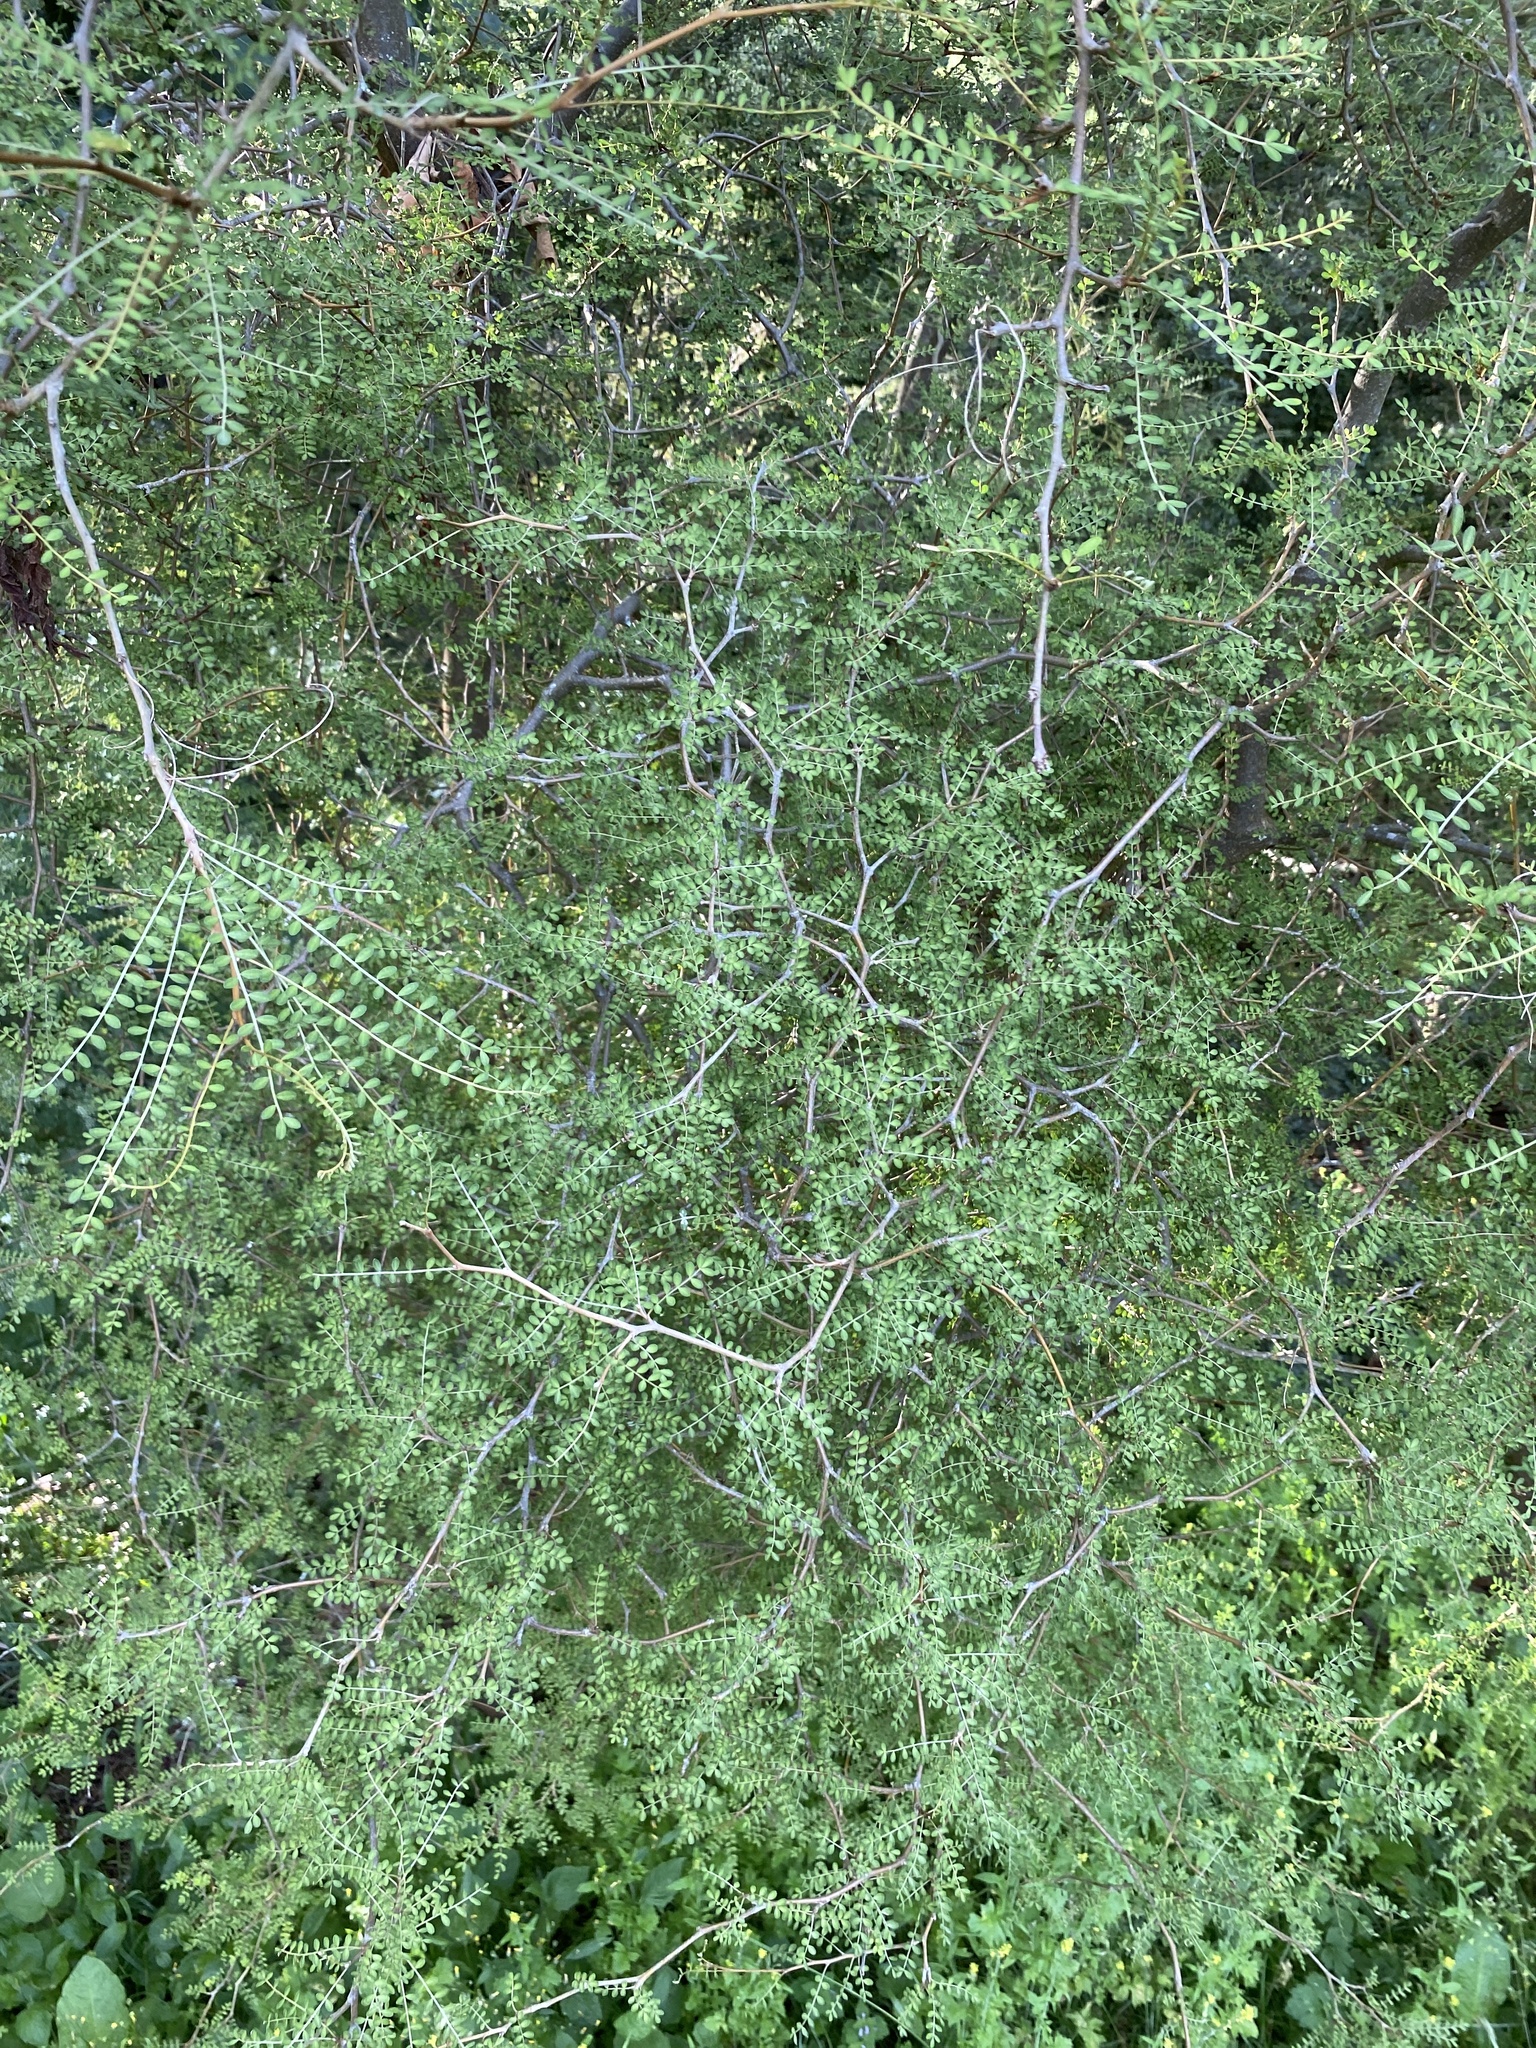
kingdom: Plantae
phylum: Tracheophyta
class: Magnoliopsida
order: Fabales
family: Fabaceae
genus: Sophora
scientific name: Sophora prostrata
